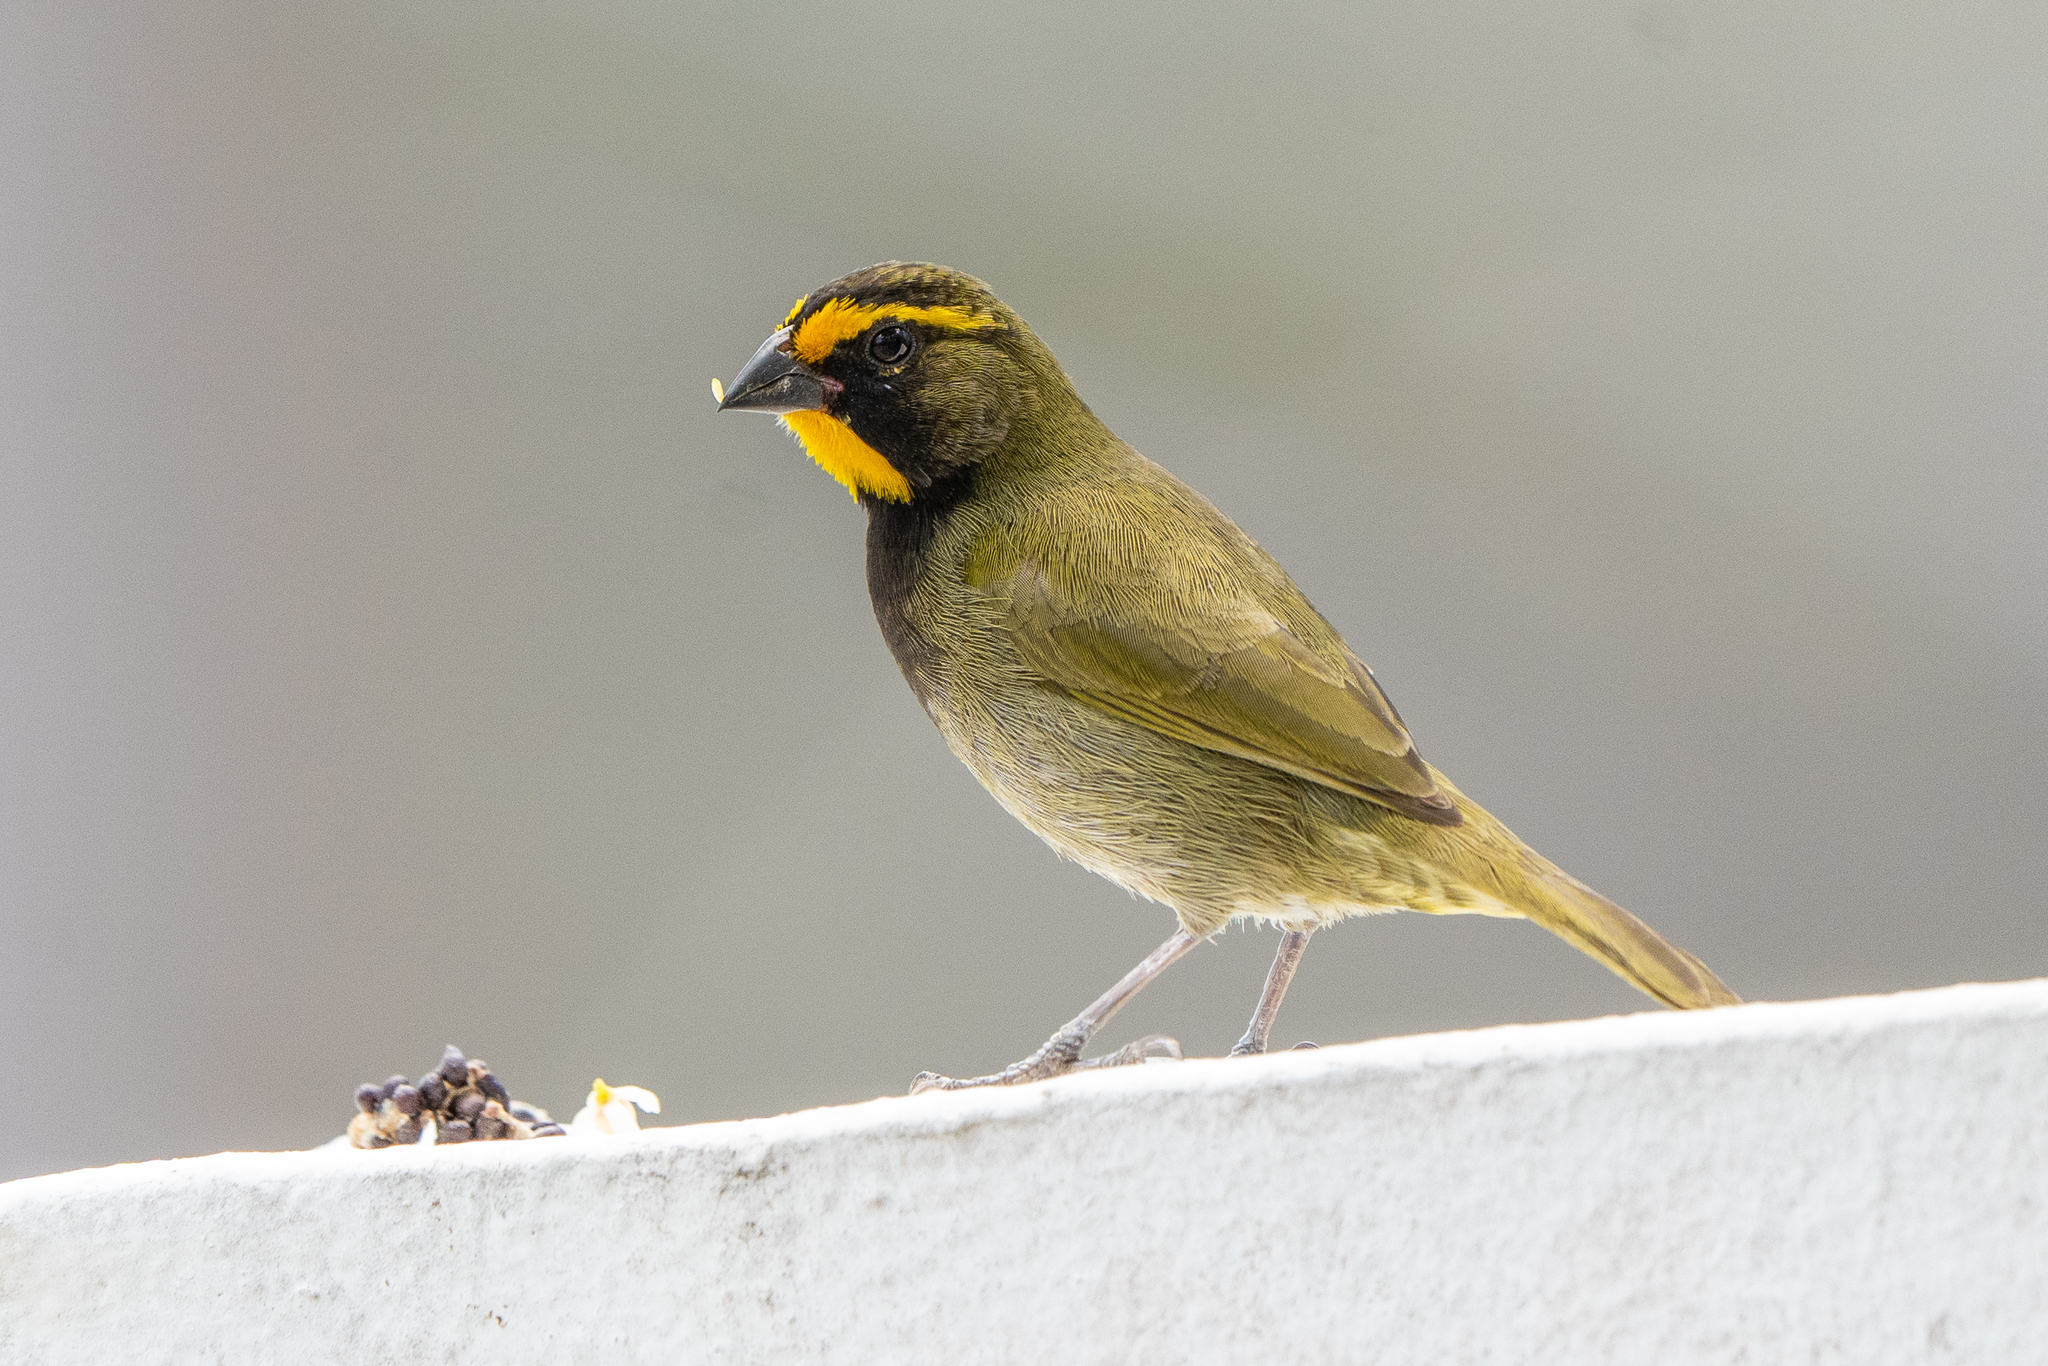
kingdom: Animalia
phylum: Chordata
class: Aves
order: Passeriformes
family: Thraupidae
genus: Tiaris
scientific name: Tiaris olivaceus
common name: Yellow-faced grassquit
